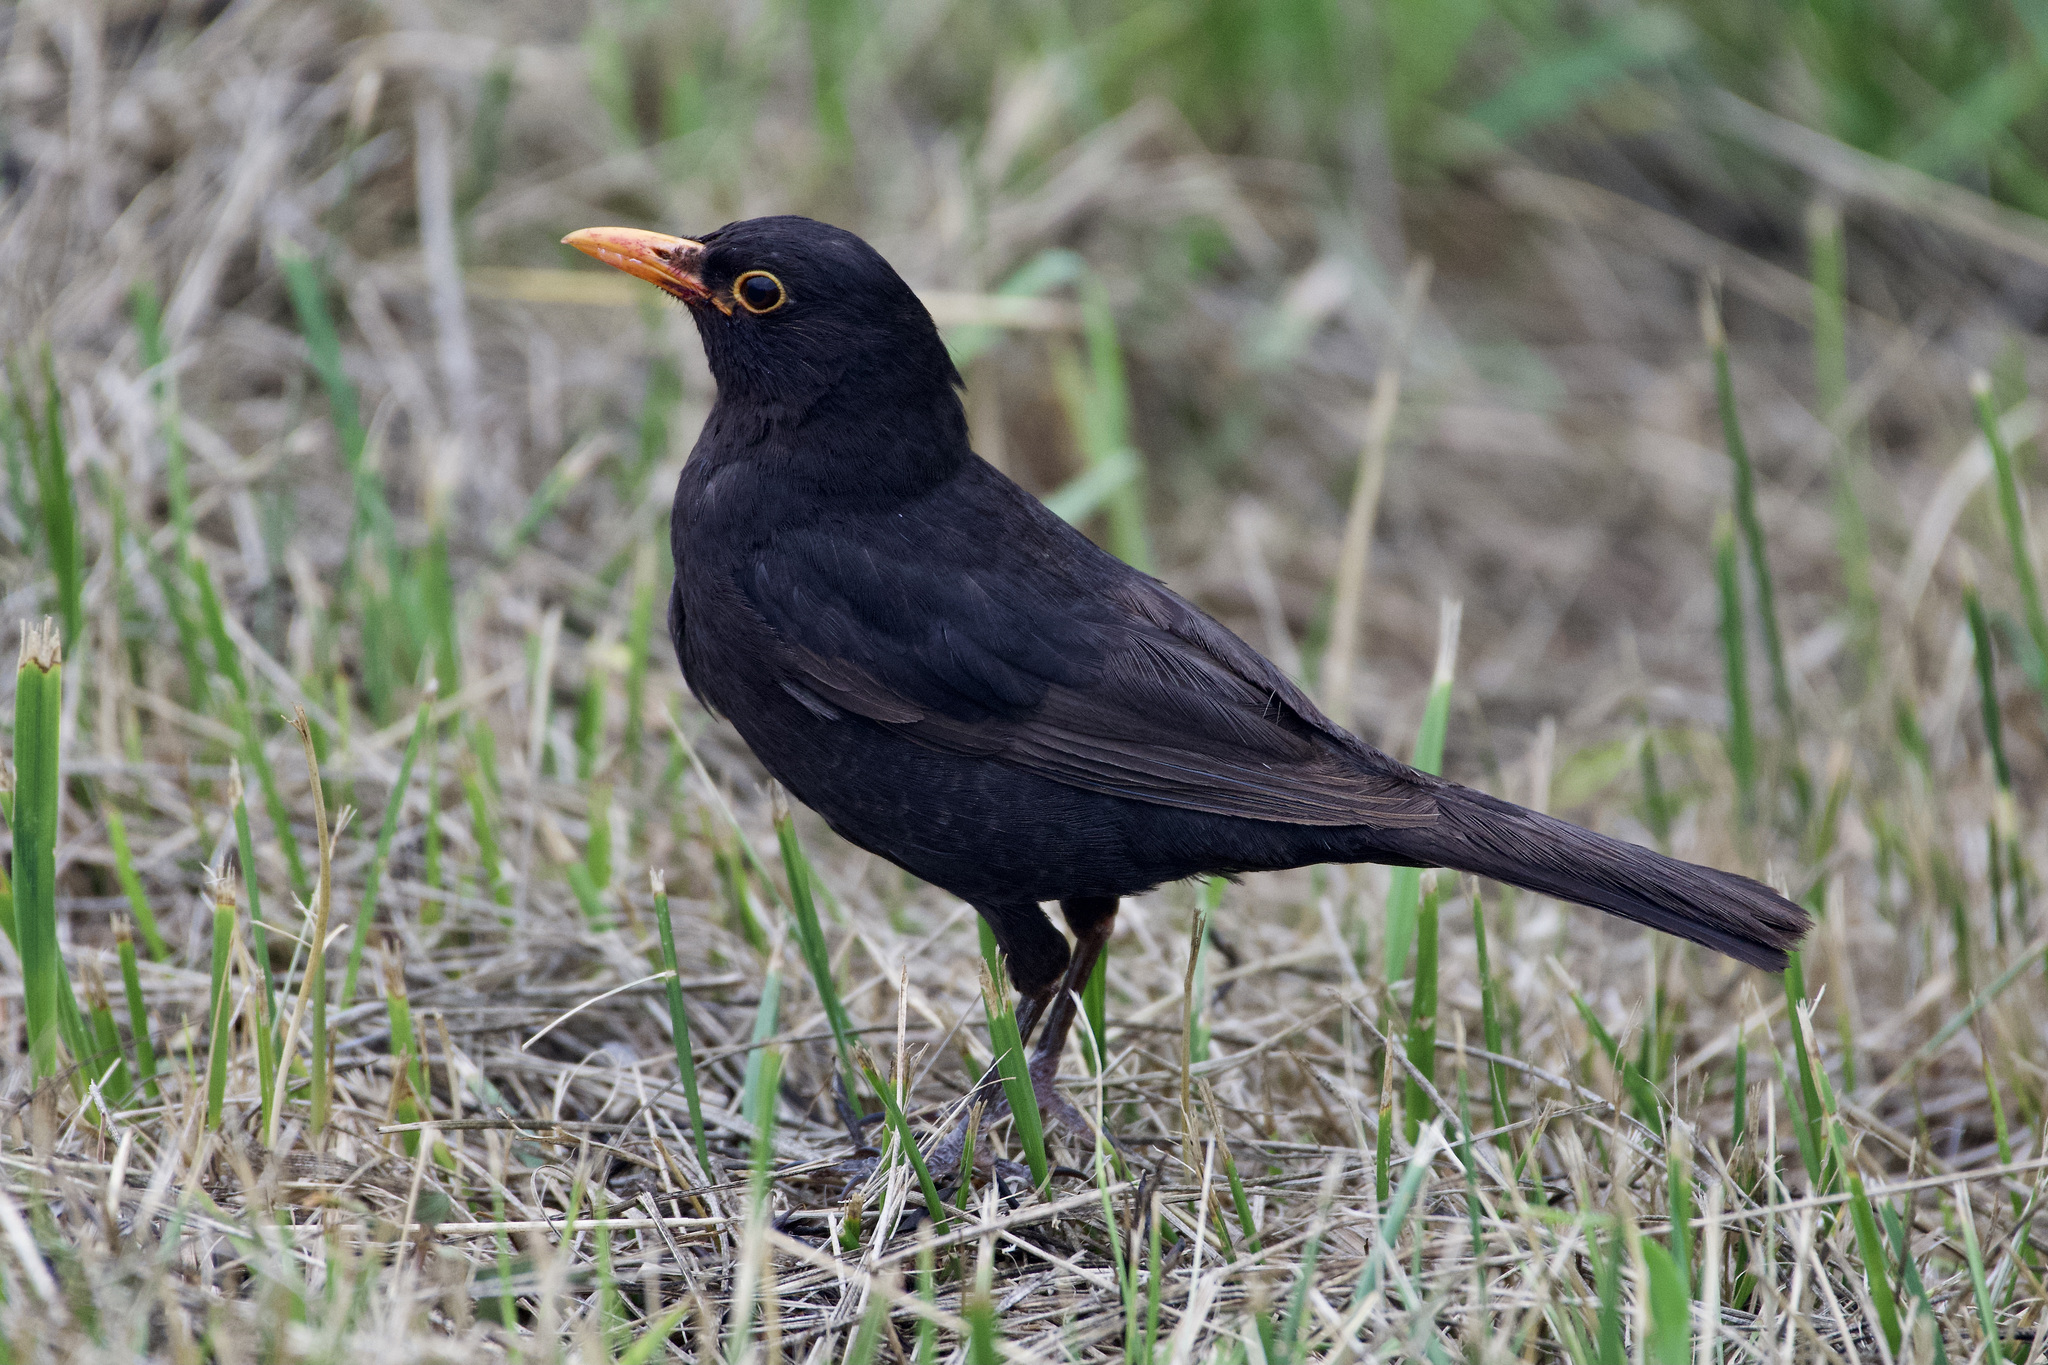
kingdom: Animalia
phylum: Chordata
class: Aves
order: Passeriformes
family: Turdidae
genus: Turdus
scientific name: Turdus merula
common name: Common blackbird
